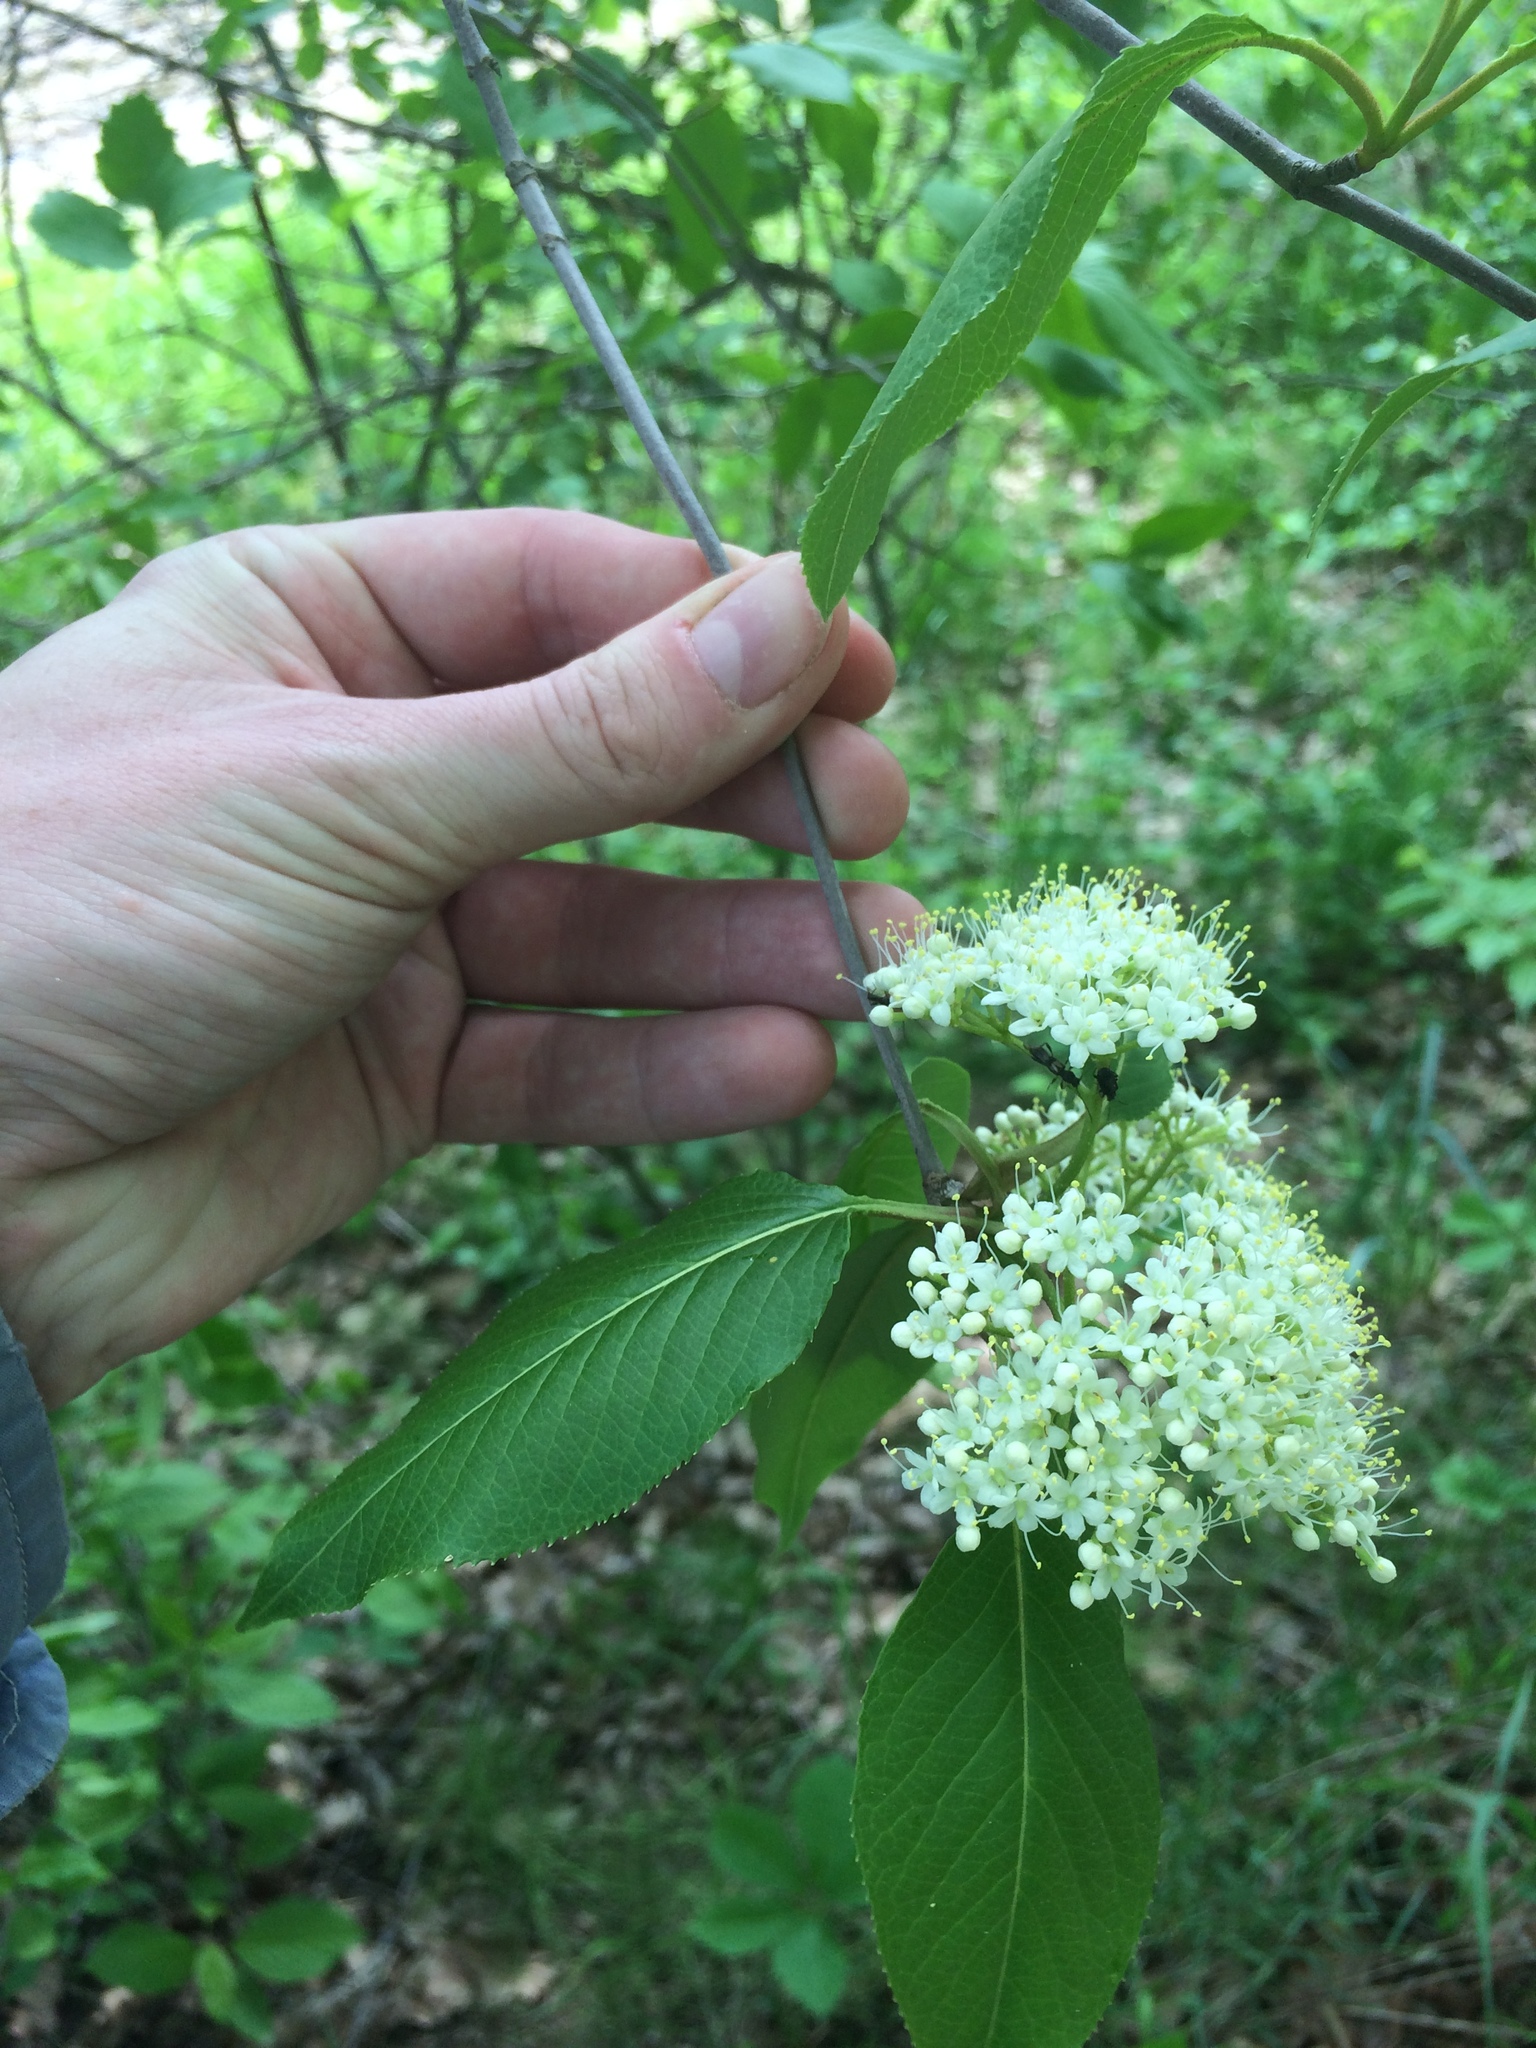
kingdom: Plantae
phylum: Tracheophyta
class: Magnoliopsida
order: Dipsacales
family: Viburnaceae
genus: Viburnum
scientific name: Viburnum lentago
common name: Black haw
